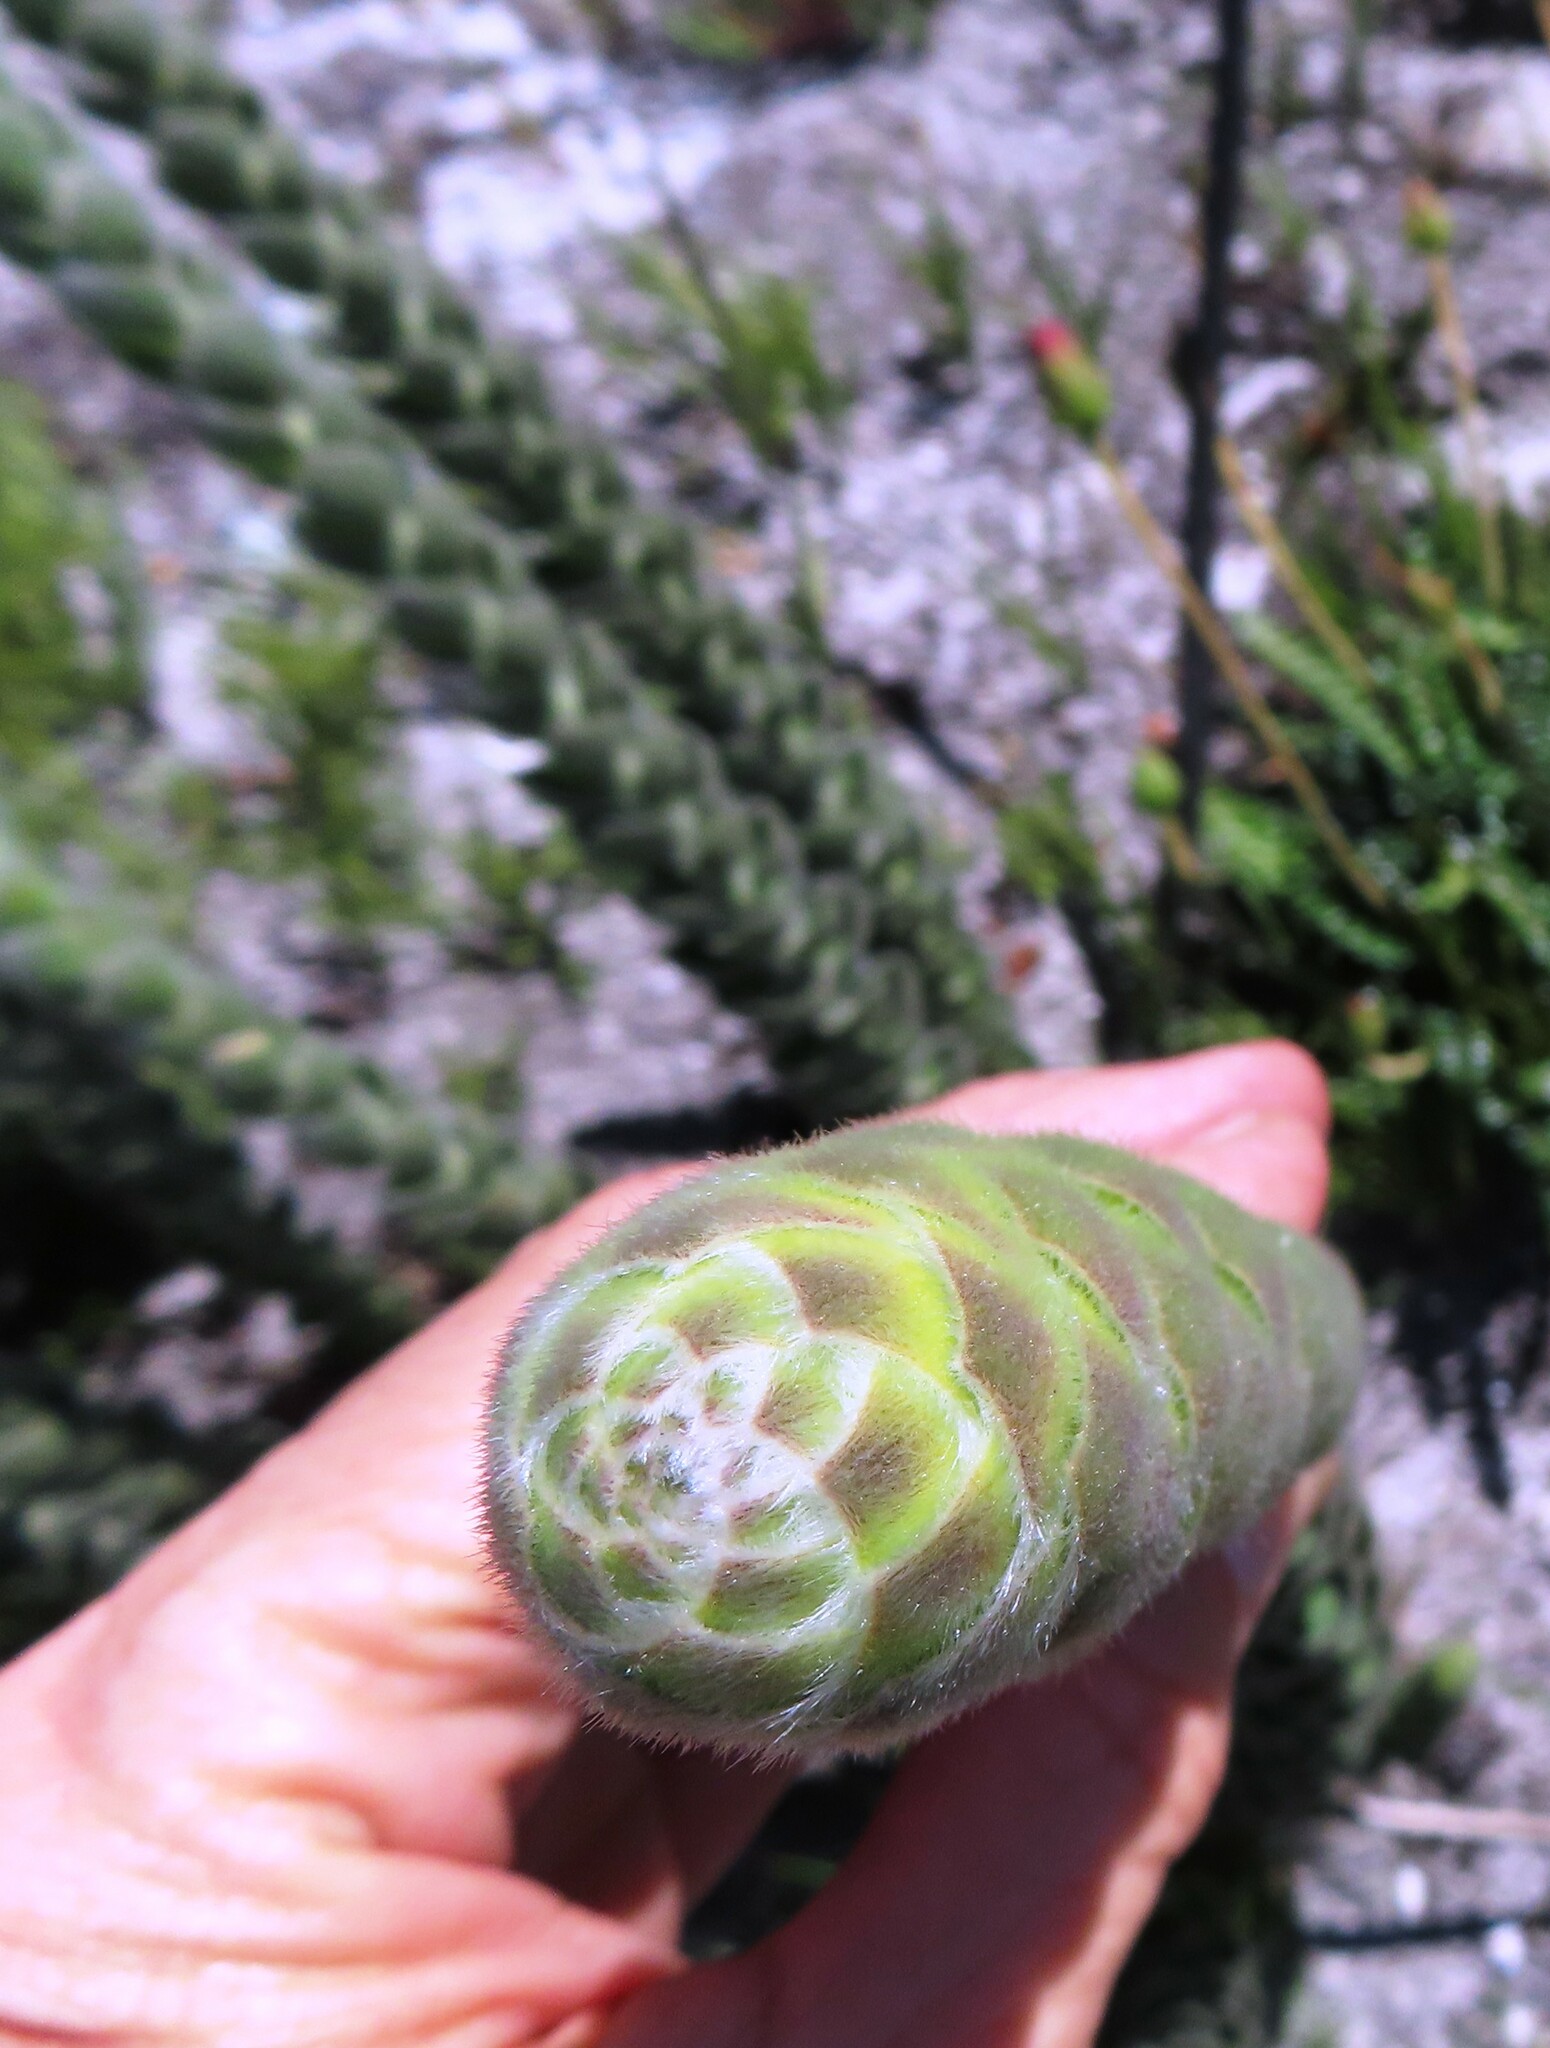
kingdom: Plantae
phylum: Tracheophyta
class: Magnoliopsida
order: Fabales
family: Fabaceae
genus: Liparia
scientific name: Liparia vestita
